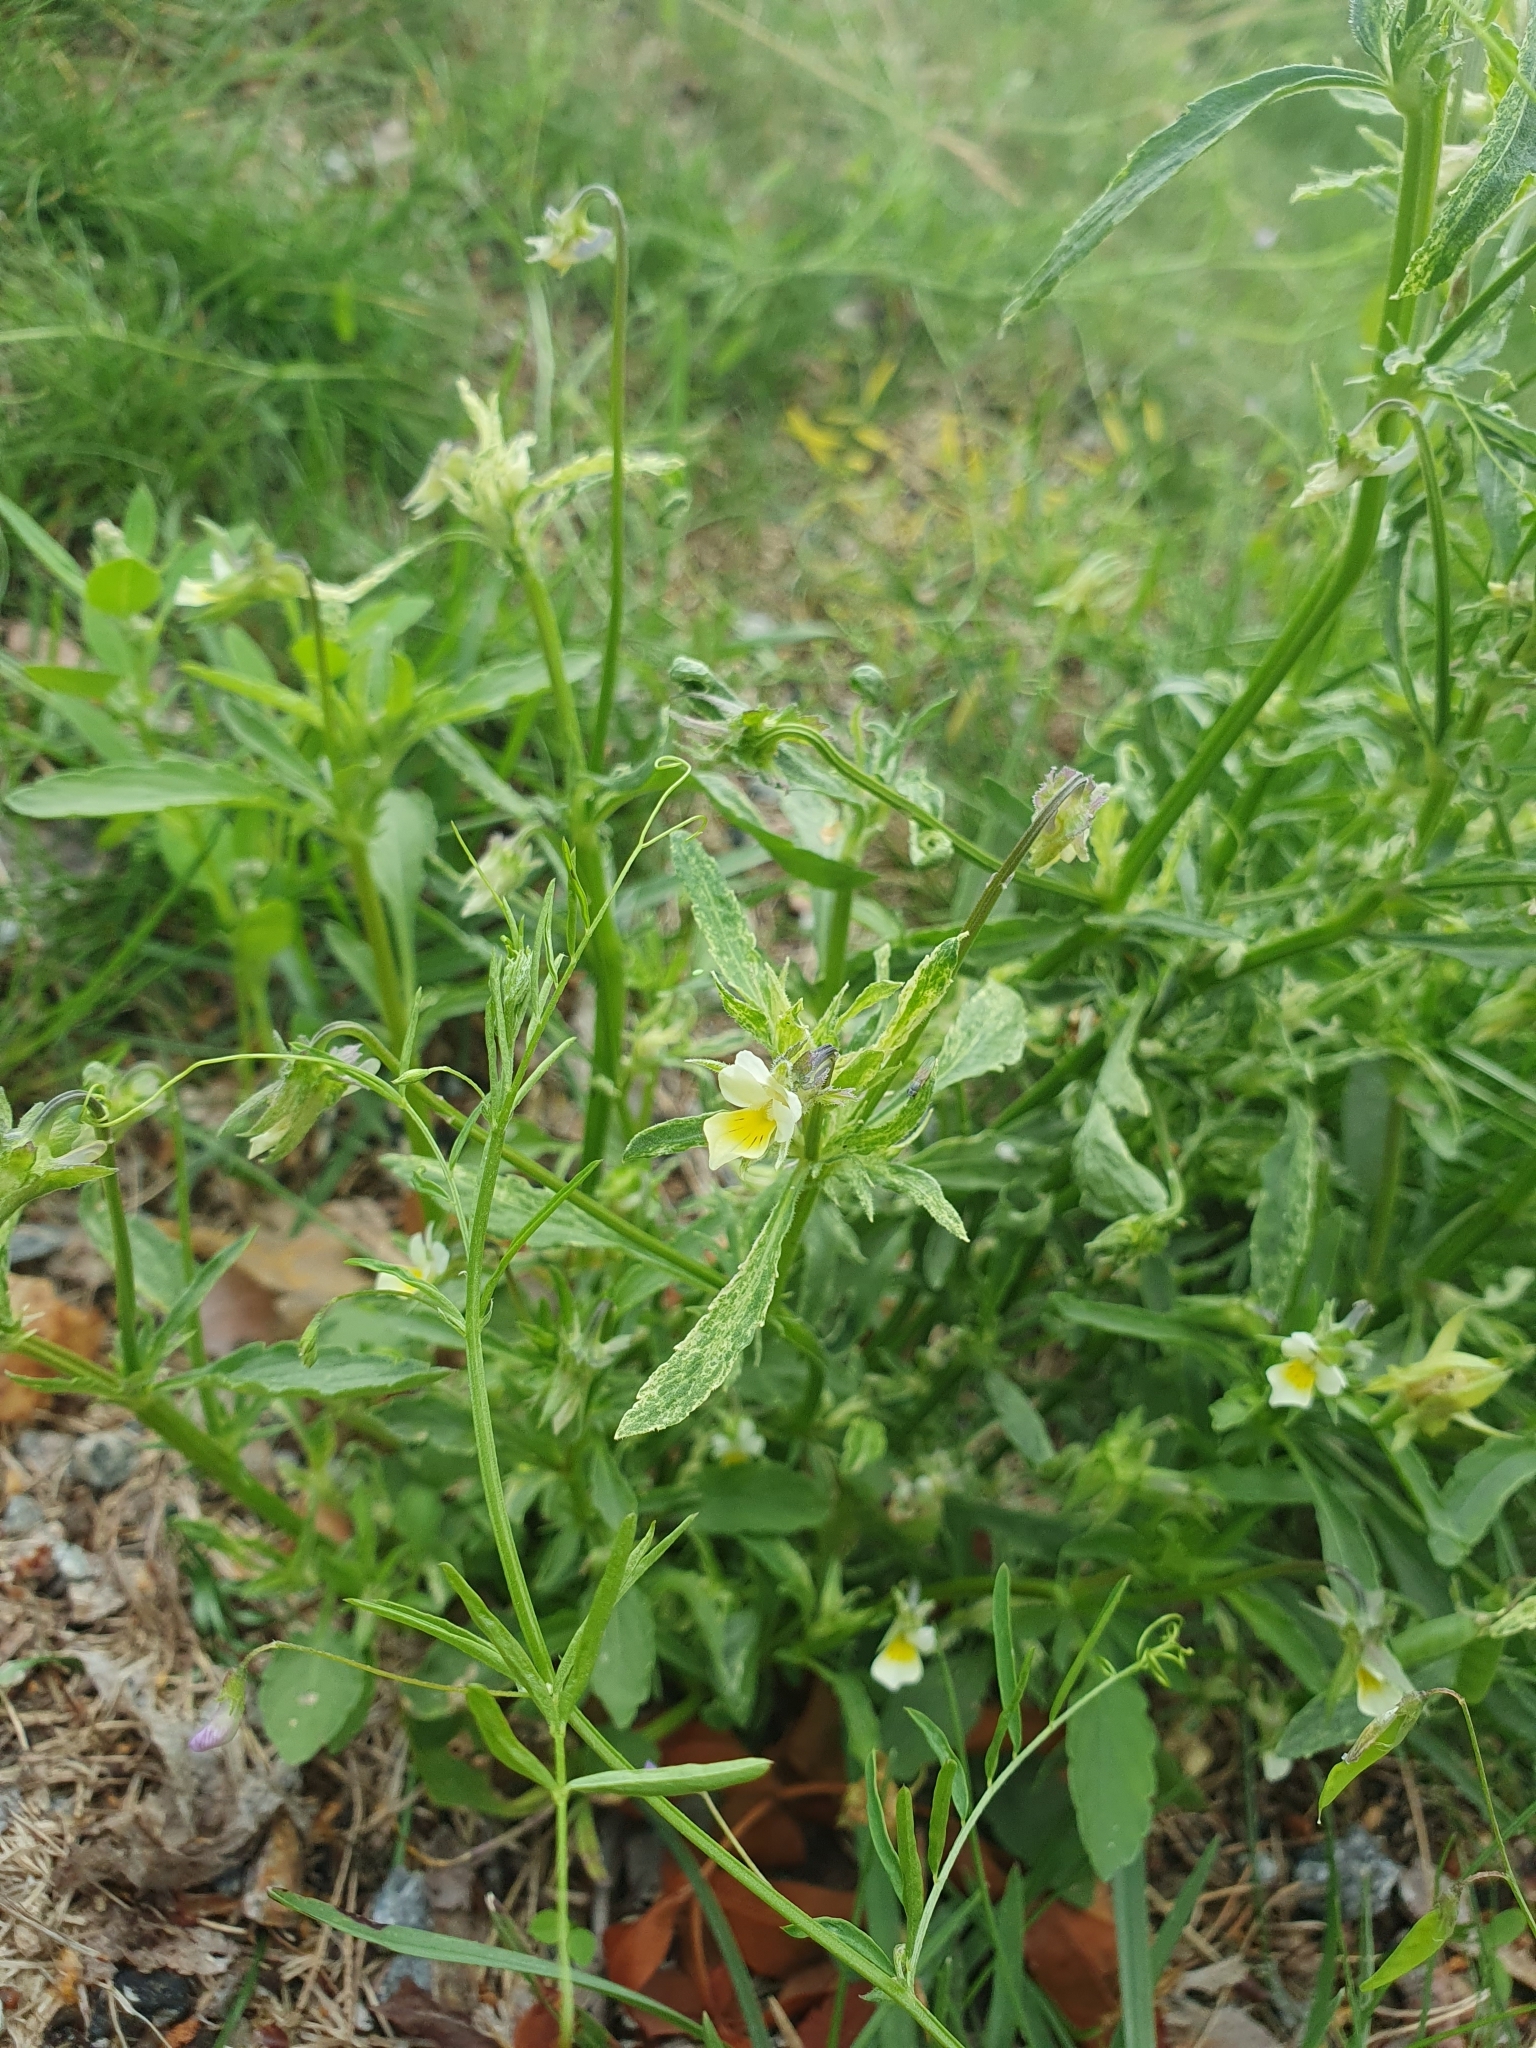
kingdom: Plantae
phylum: Tracheophyta
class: Magnoliopsida
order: Malpighiales
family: Violaceae
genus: Viola
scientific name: Viola arvensis
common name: Field pansy
